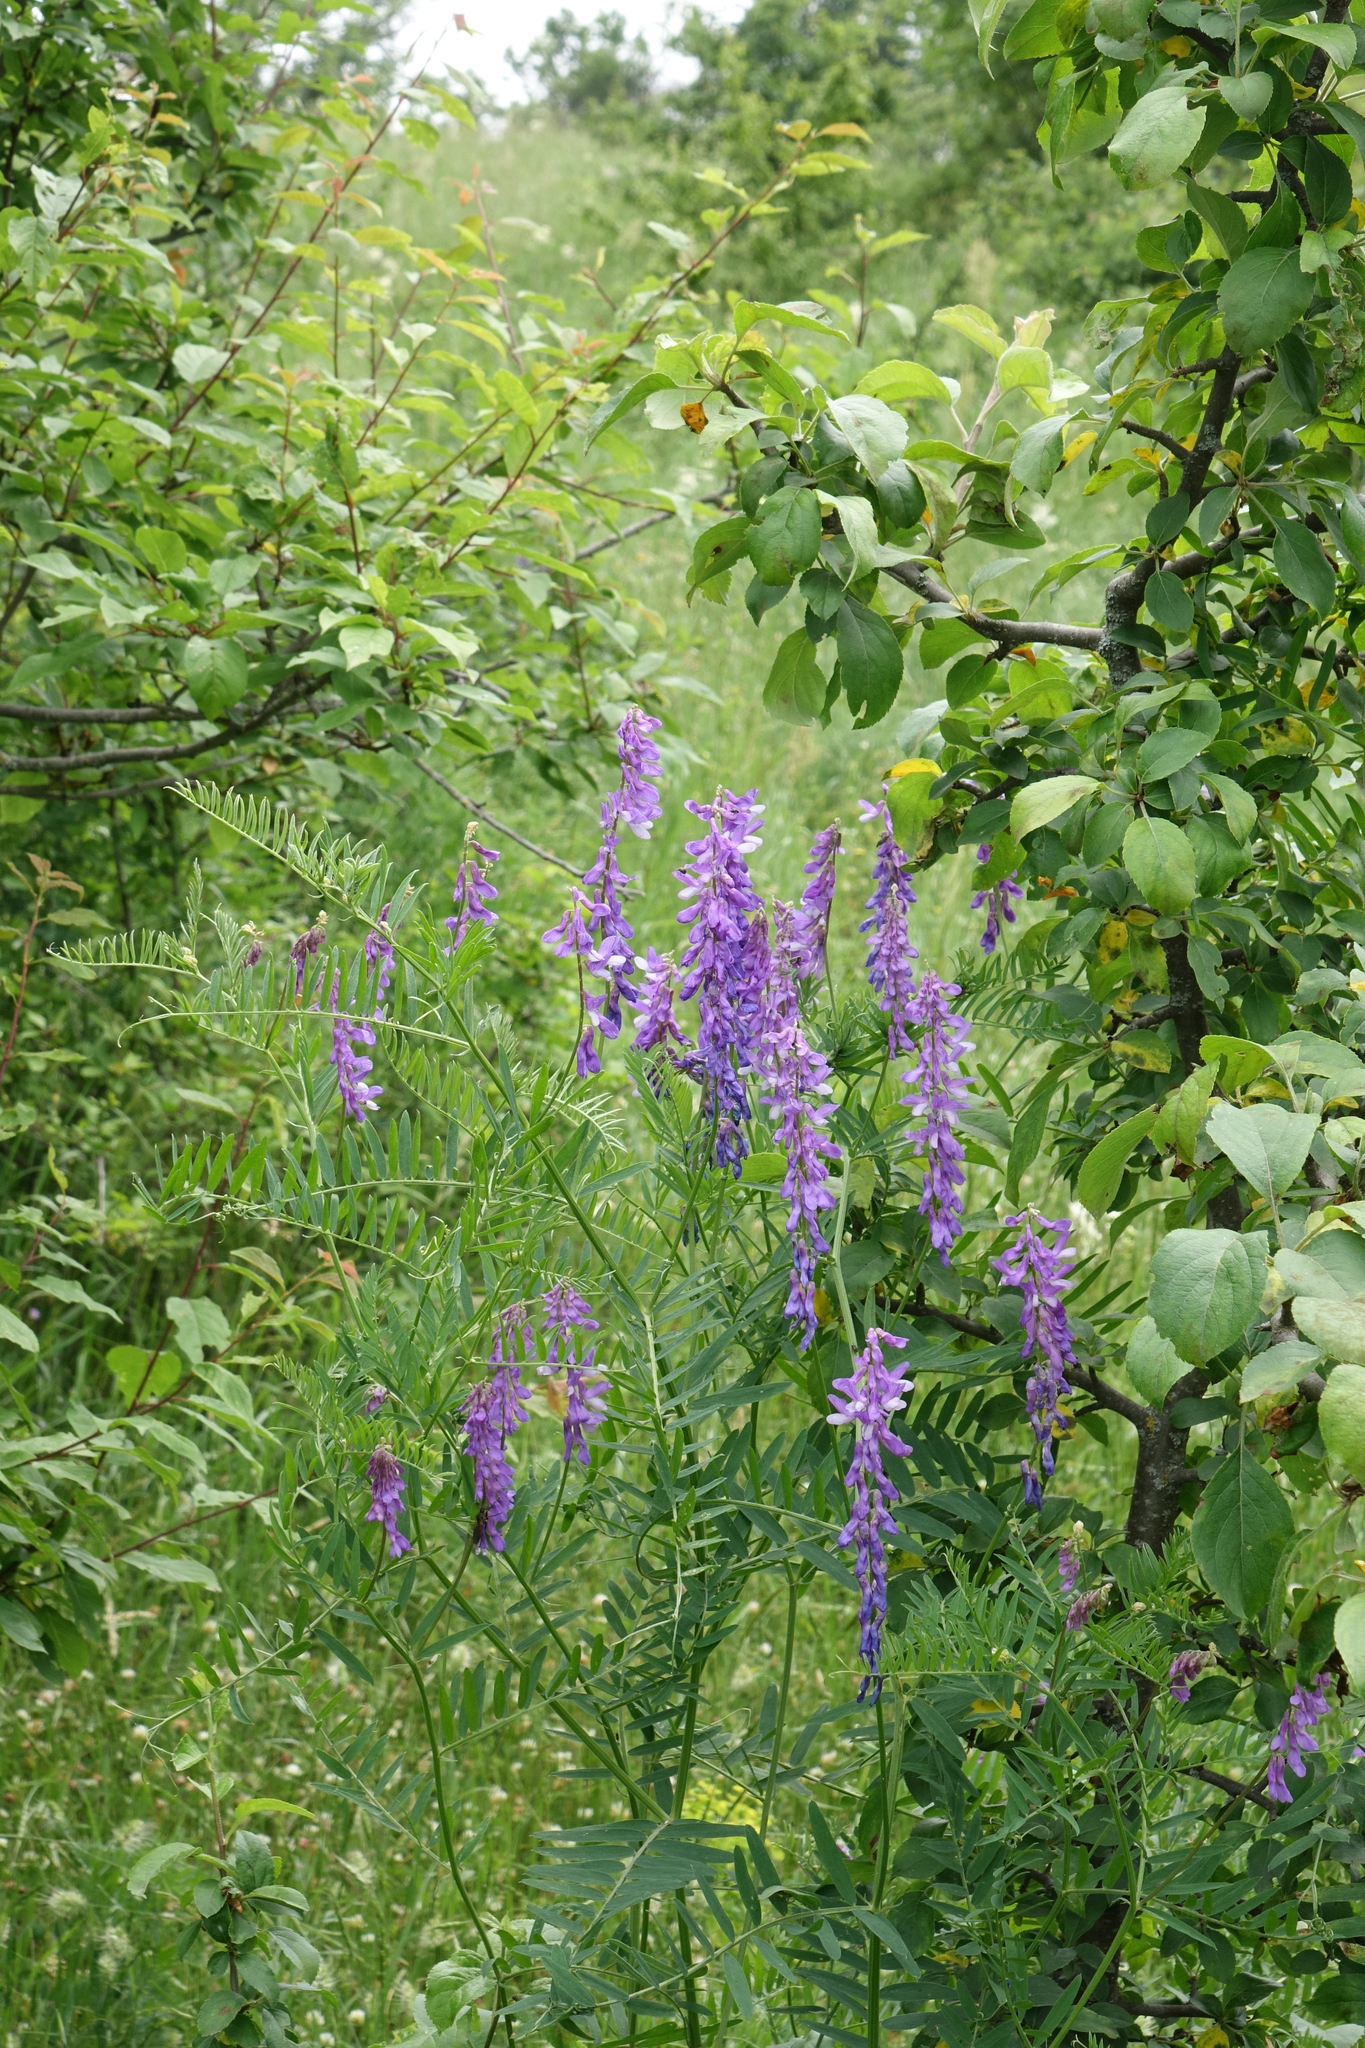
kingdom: Plantae
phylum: Tracheophyta
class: Magnoliopsida
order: Fabales
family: Fabaceae
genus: Vicia
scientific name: Vicia tenuifolia
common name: Fine-leaved vetch
